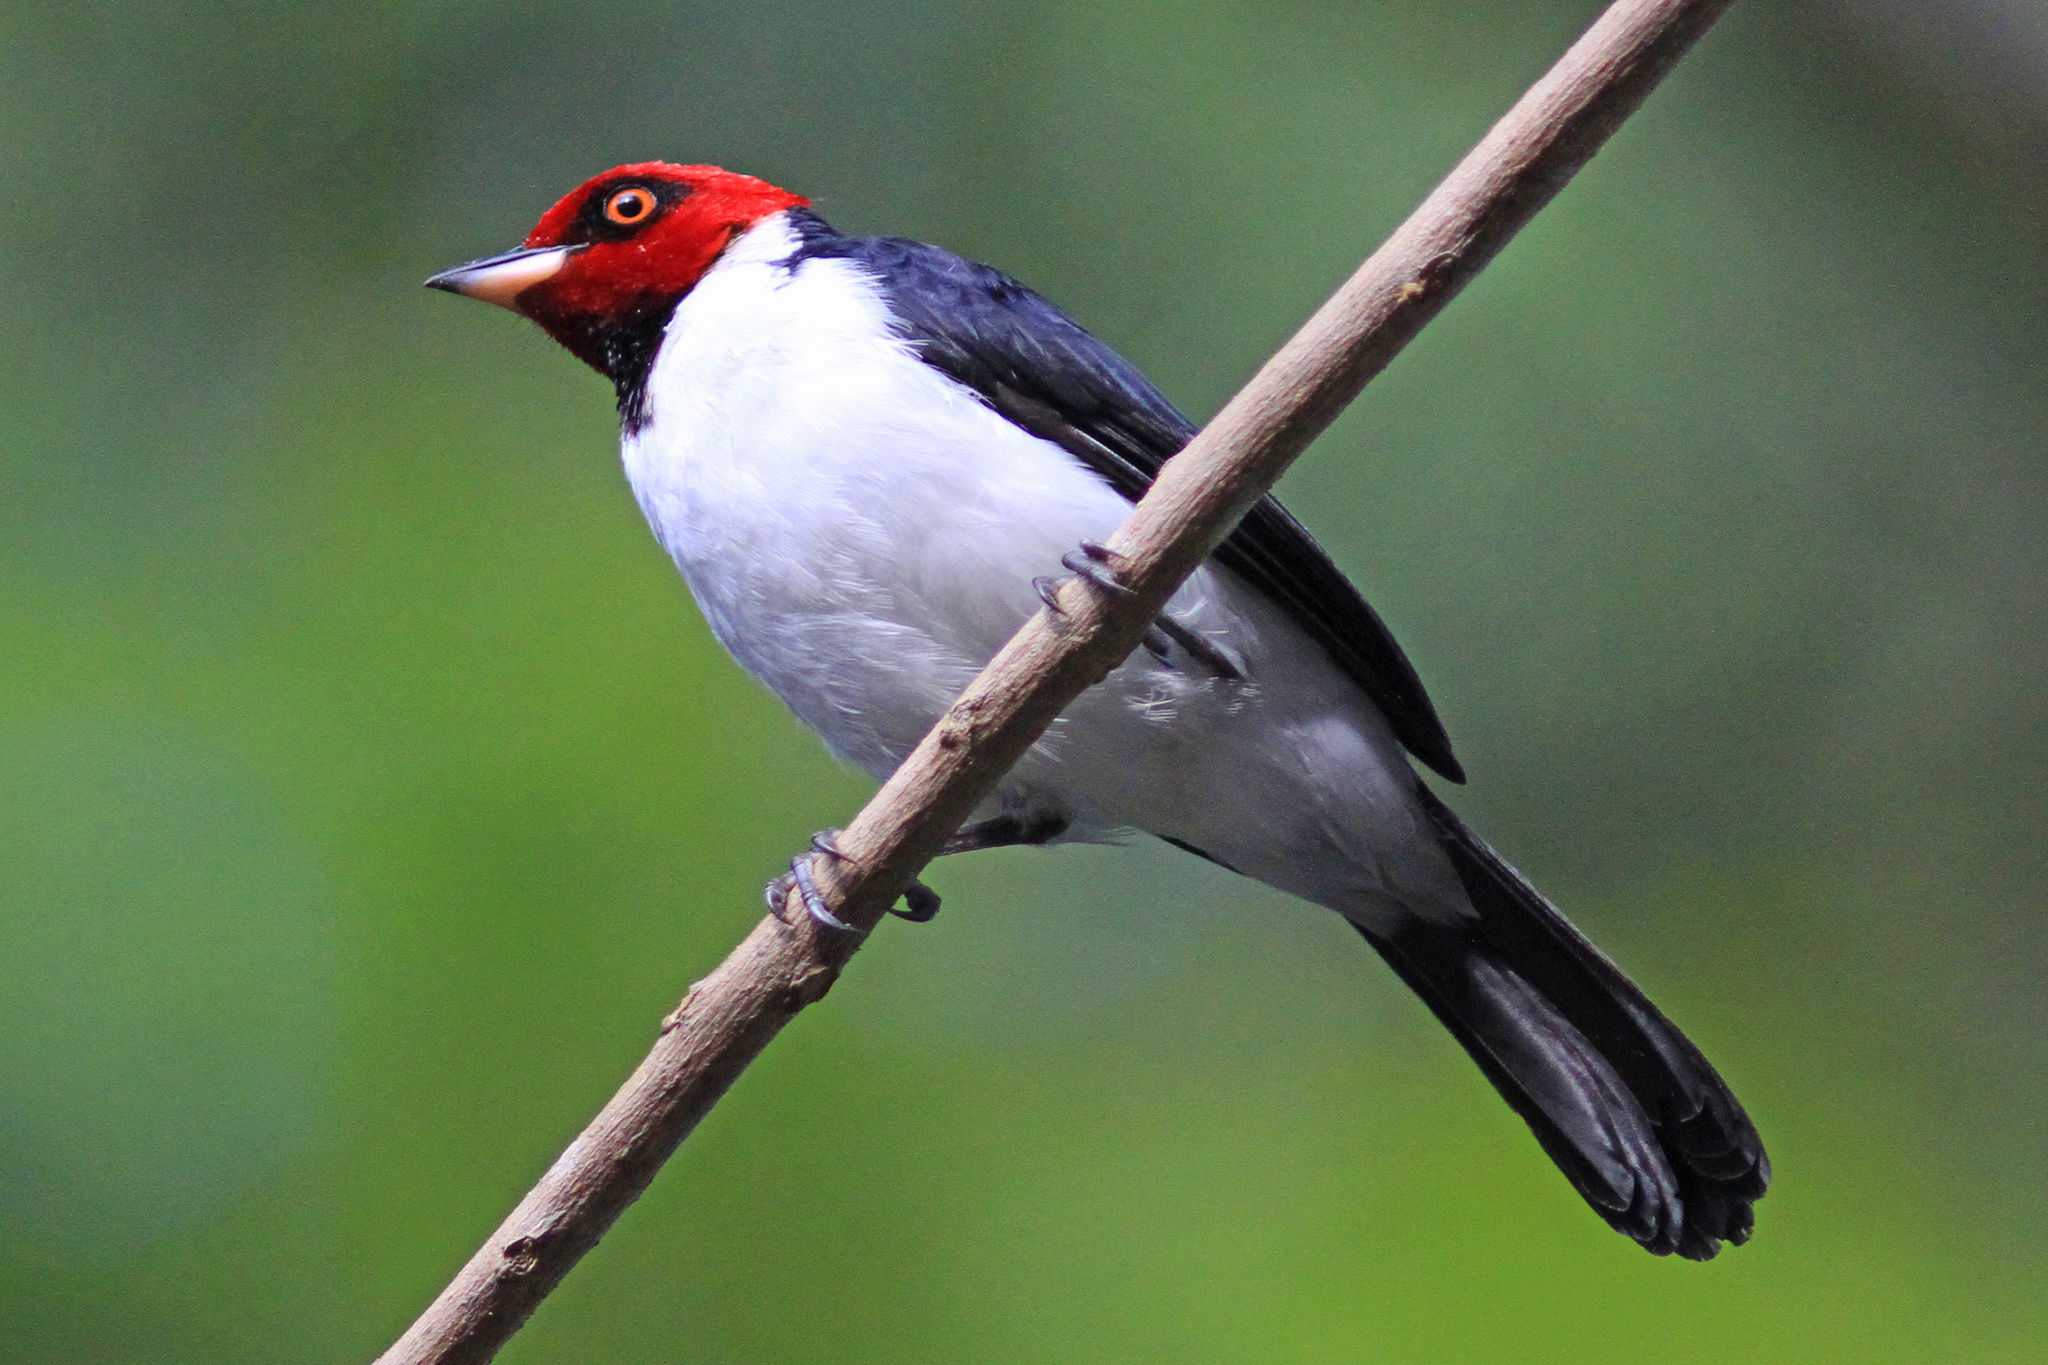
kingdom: Animalia
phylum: Chordata
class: Aves
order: Passeriformes
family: Thraupidae
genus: Paroaria
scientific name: Paroaria gularis
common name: Red-capped cardinal
